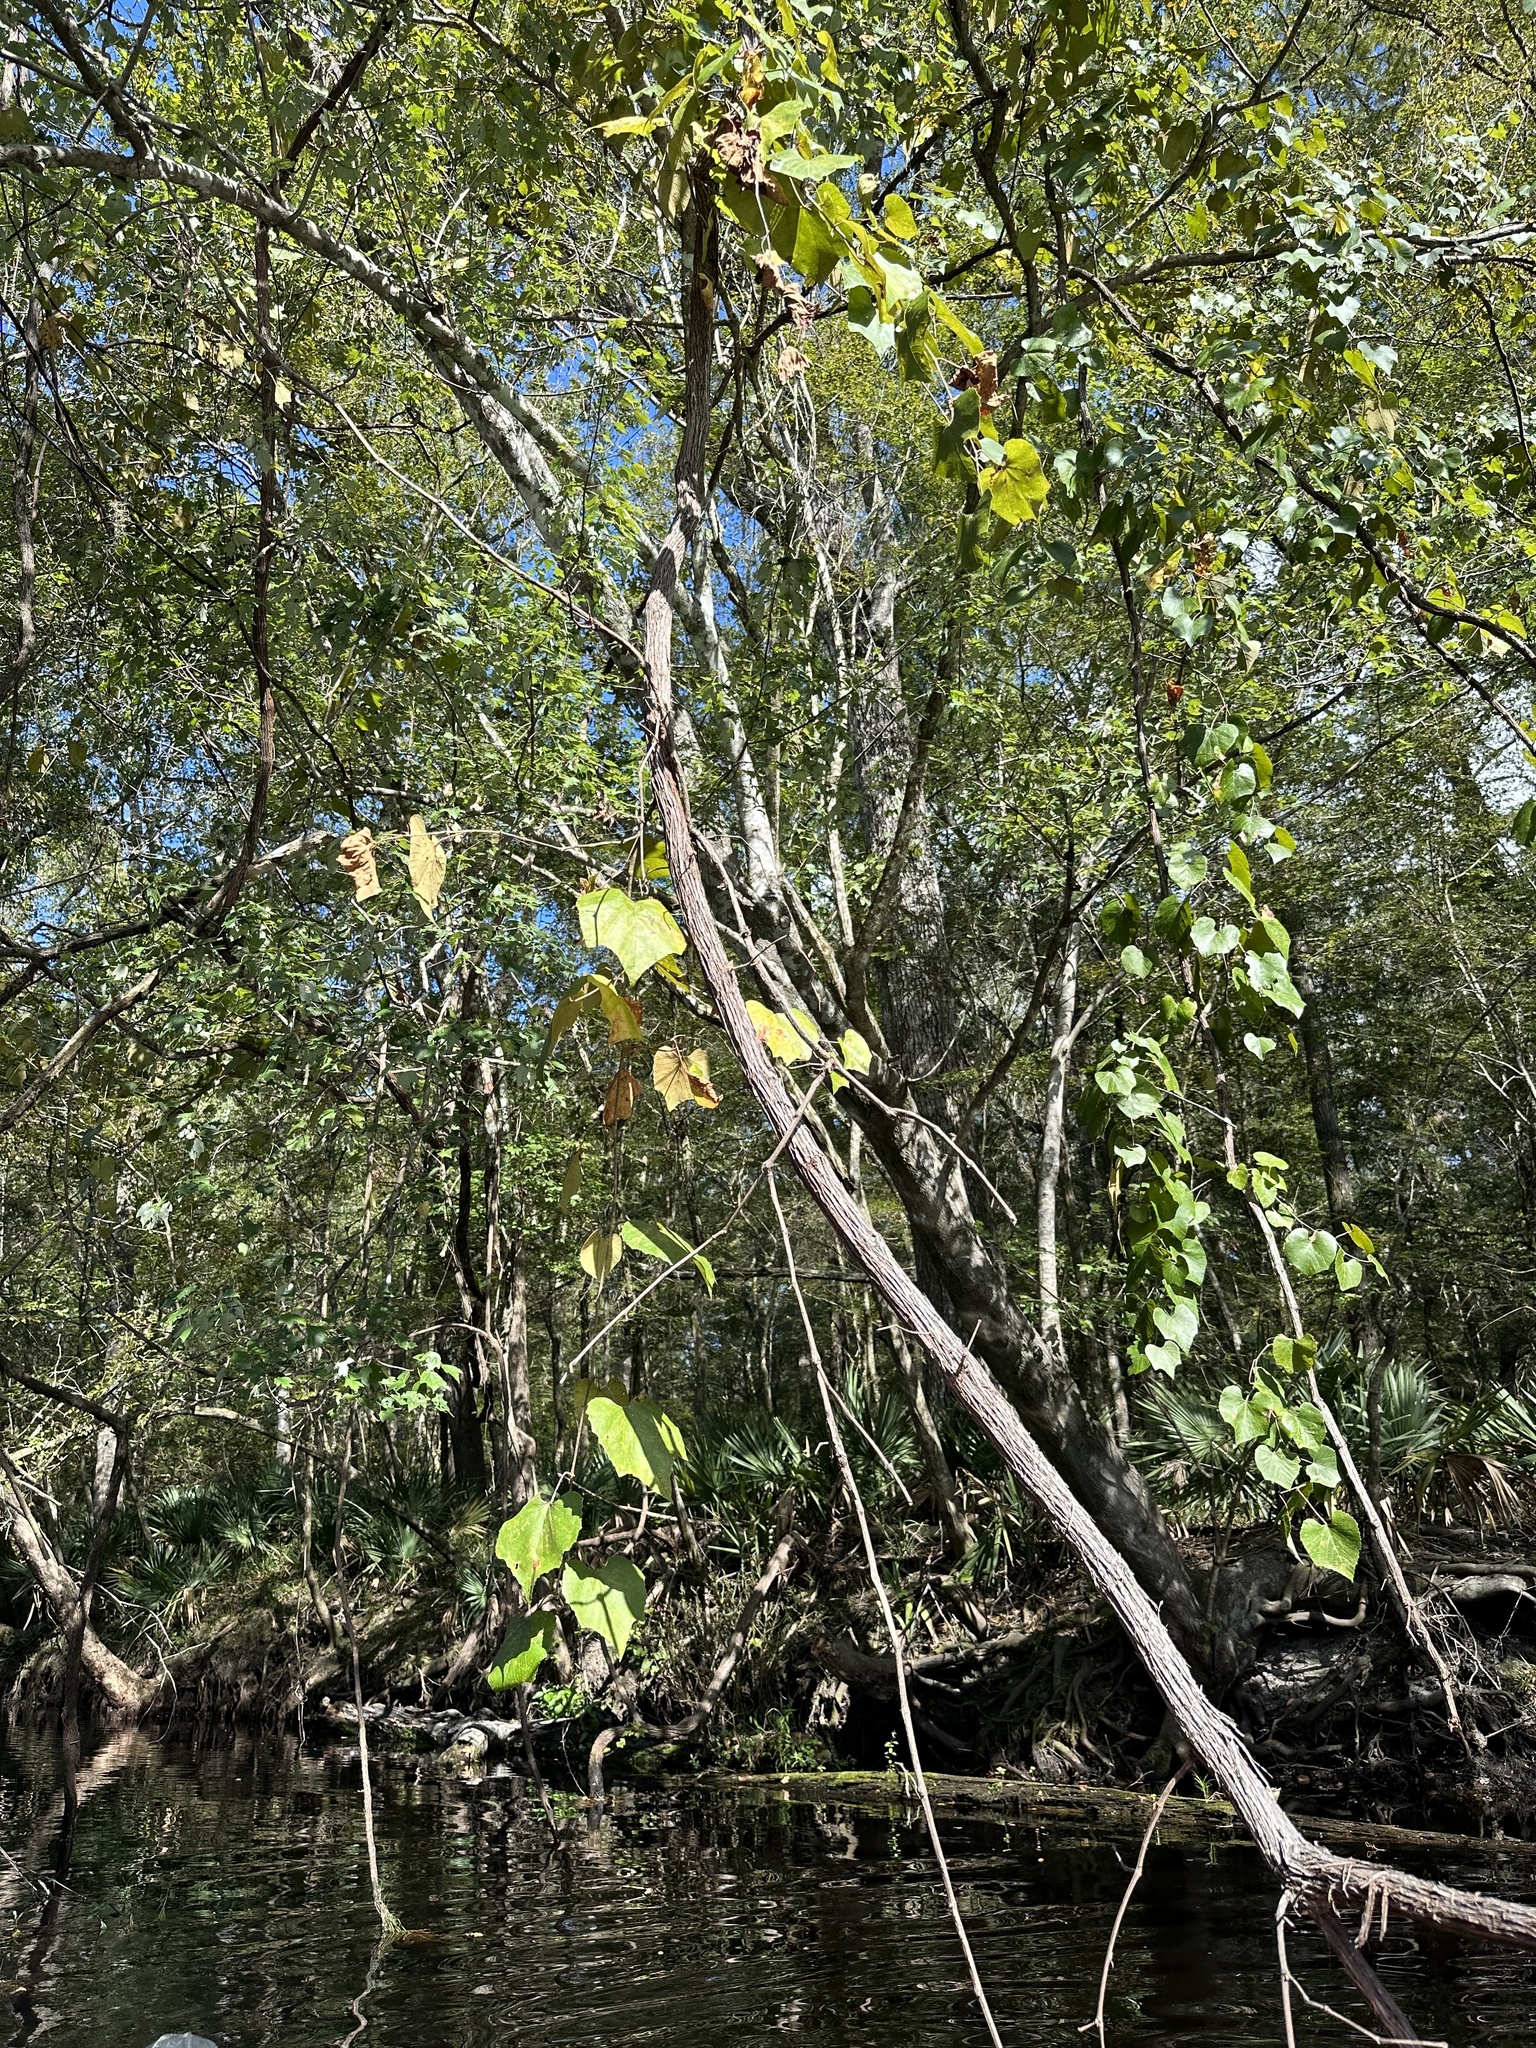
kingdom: Plantae
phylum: Tracheophyta
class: Magnoliopsida
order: Vitales
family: Vitaceae
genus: Vitis
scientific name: Vitis cinerea
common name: Ashy grape
